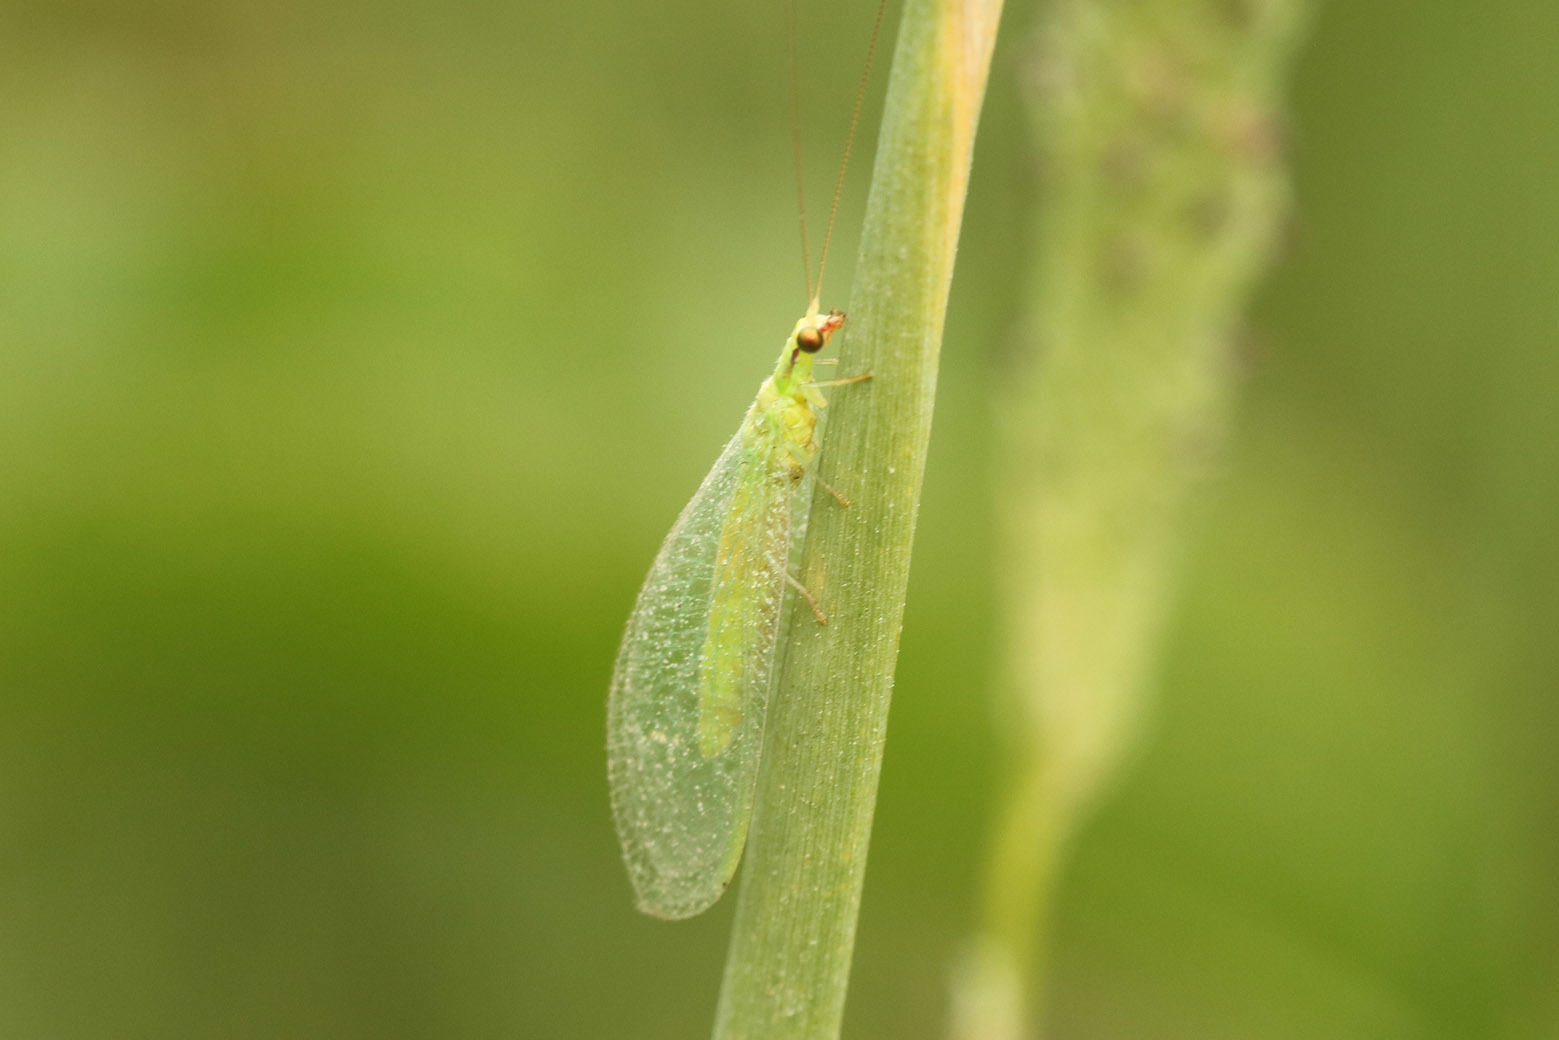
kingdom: Animalia
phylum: Arthropoda
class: Insecta
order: Neuroptera
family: Chrysopidae
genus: Chrysoperla
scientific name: Chrysoperla externa
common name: Green lacewing
